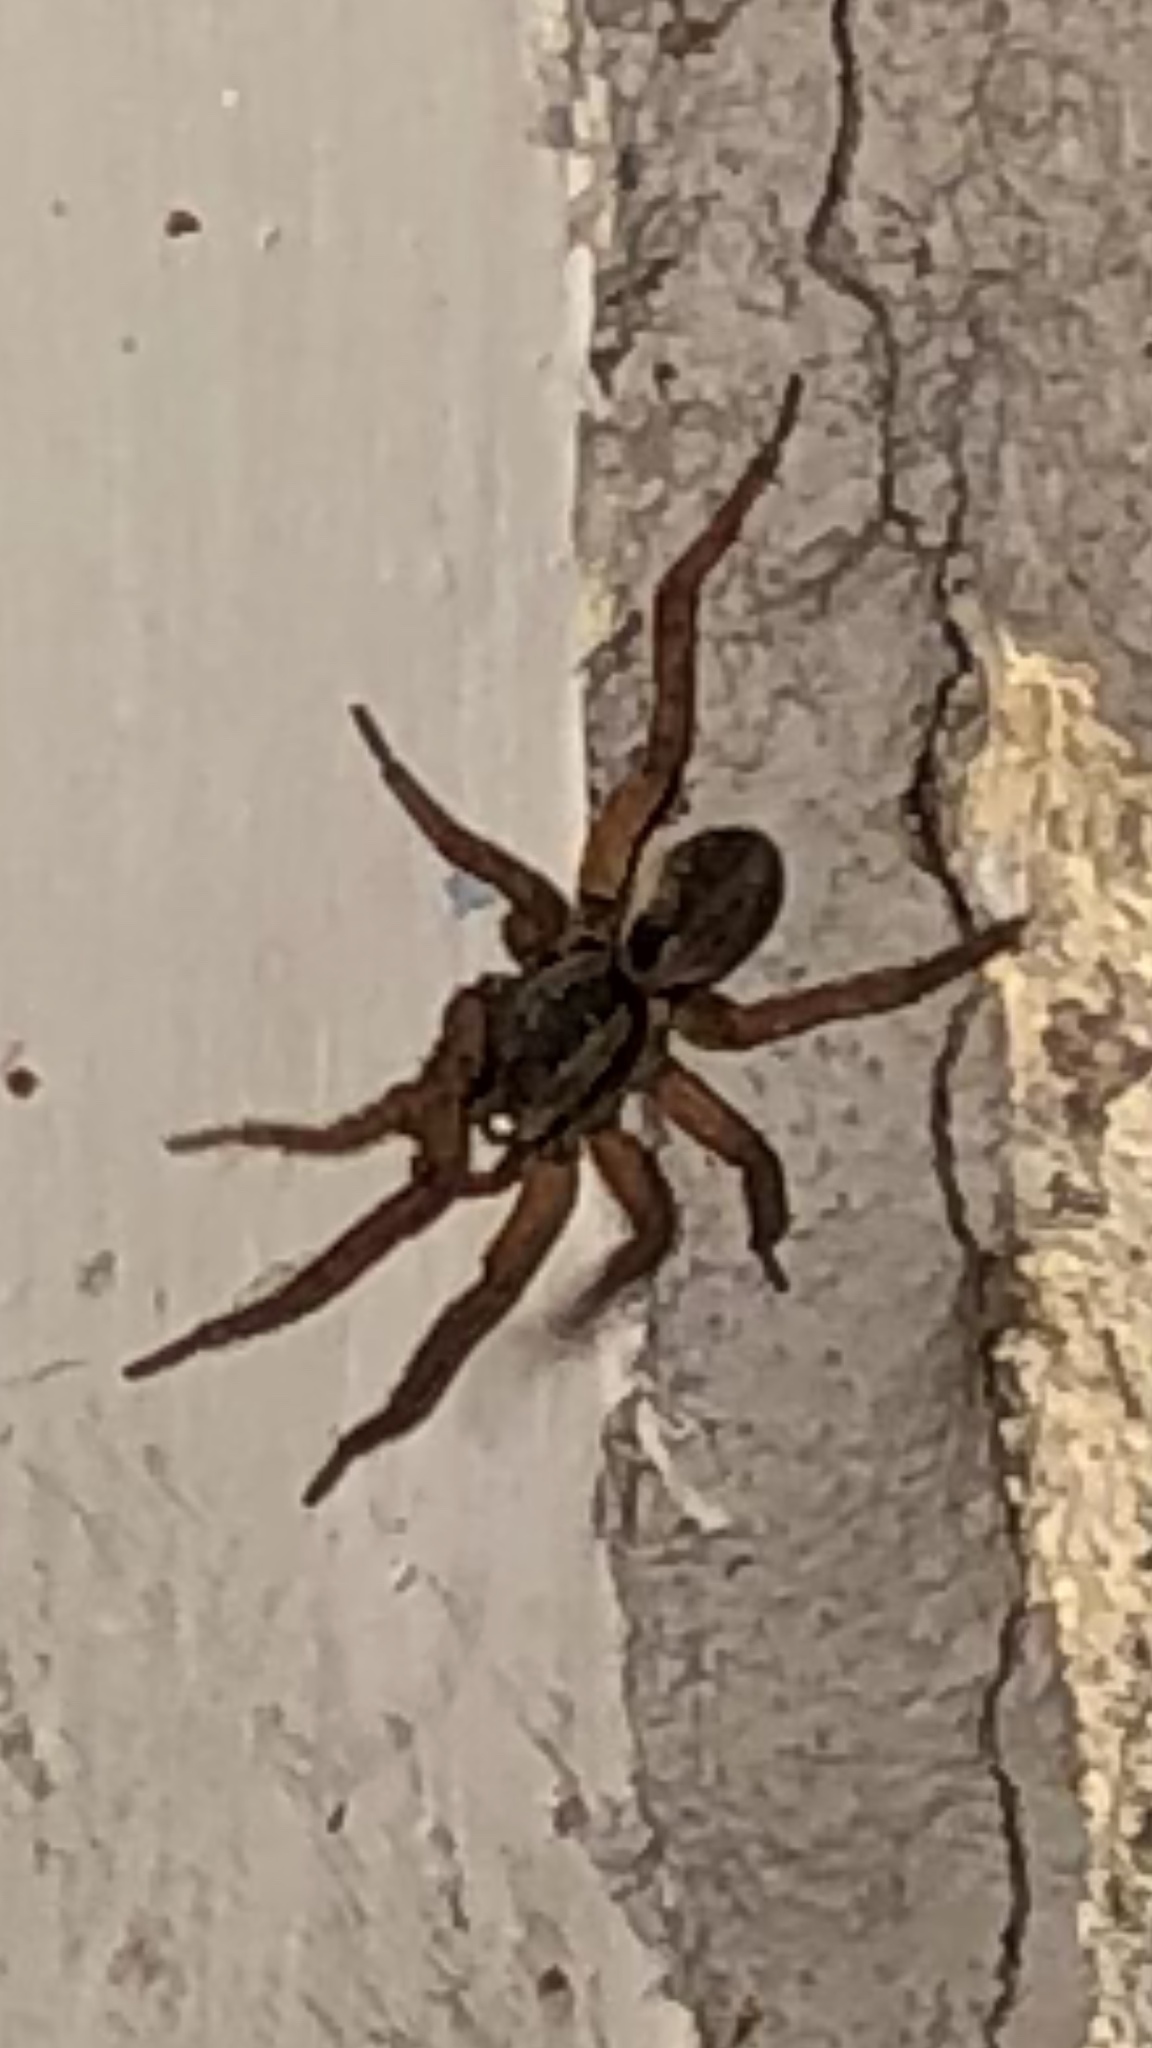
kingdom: Animalia
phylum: Arthropoda
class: Arachnida
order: Araneae
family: Lycosidae
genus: Trochosa
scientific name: Trochosa sepulchralis
